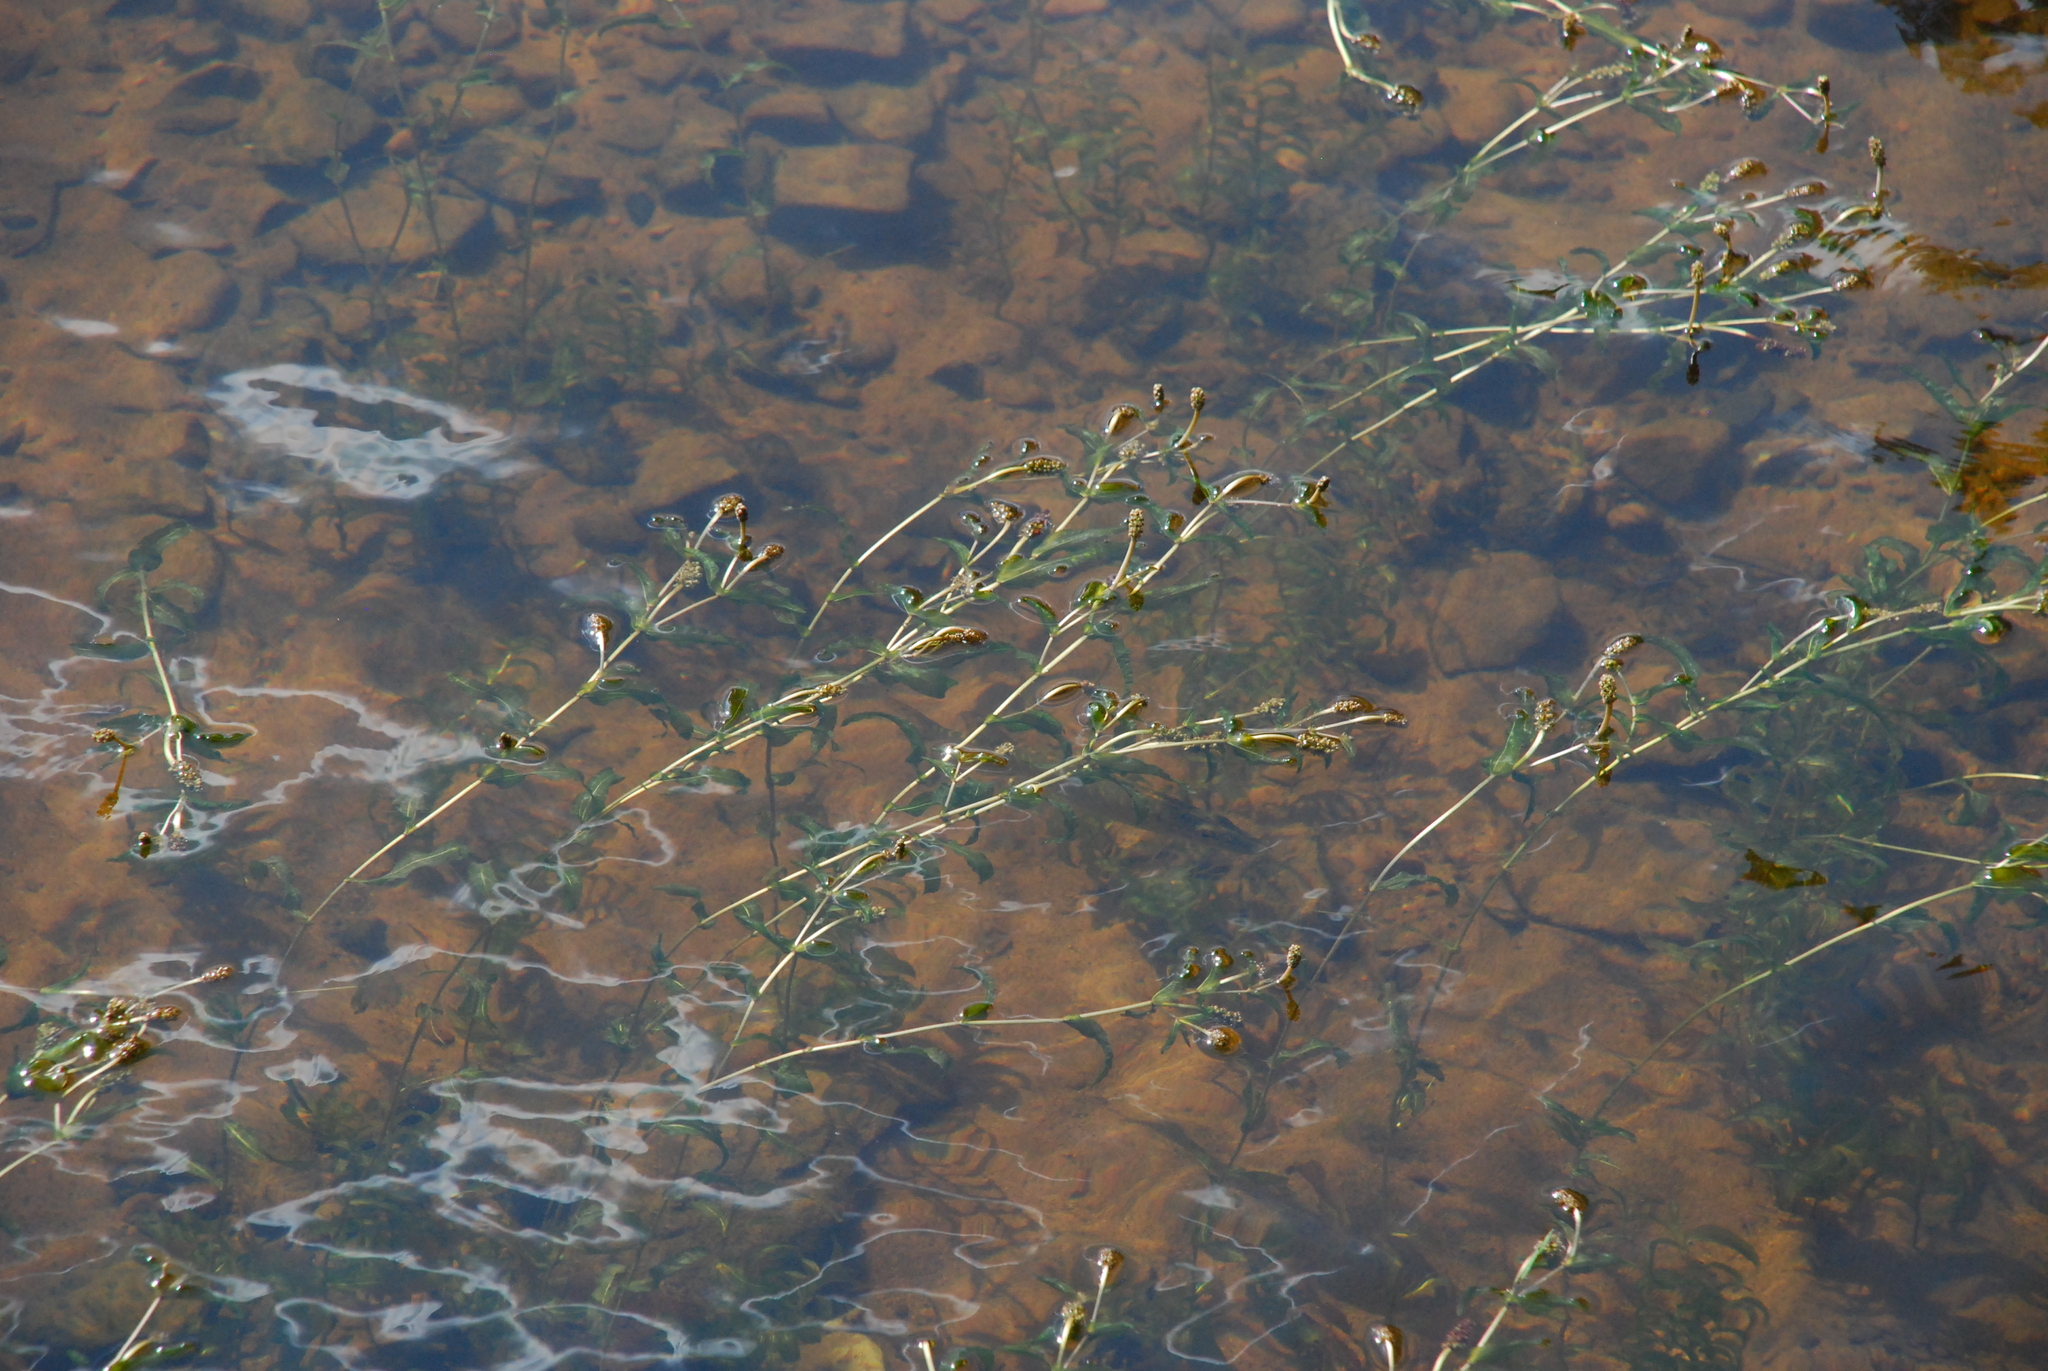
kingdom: Plantae
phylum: Tracheophyta
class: Liliopsida
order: Alismatales
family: Potamogetonaceae
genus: Potamogeton
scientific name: Potamogeton perfoliatus
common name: Perfoliate pondweed
